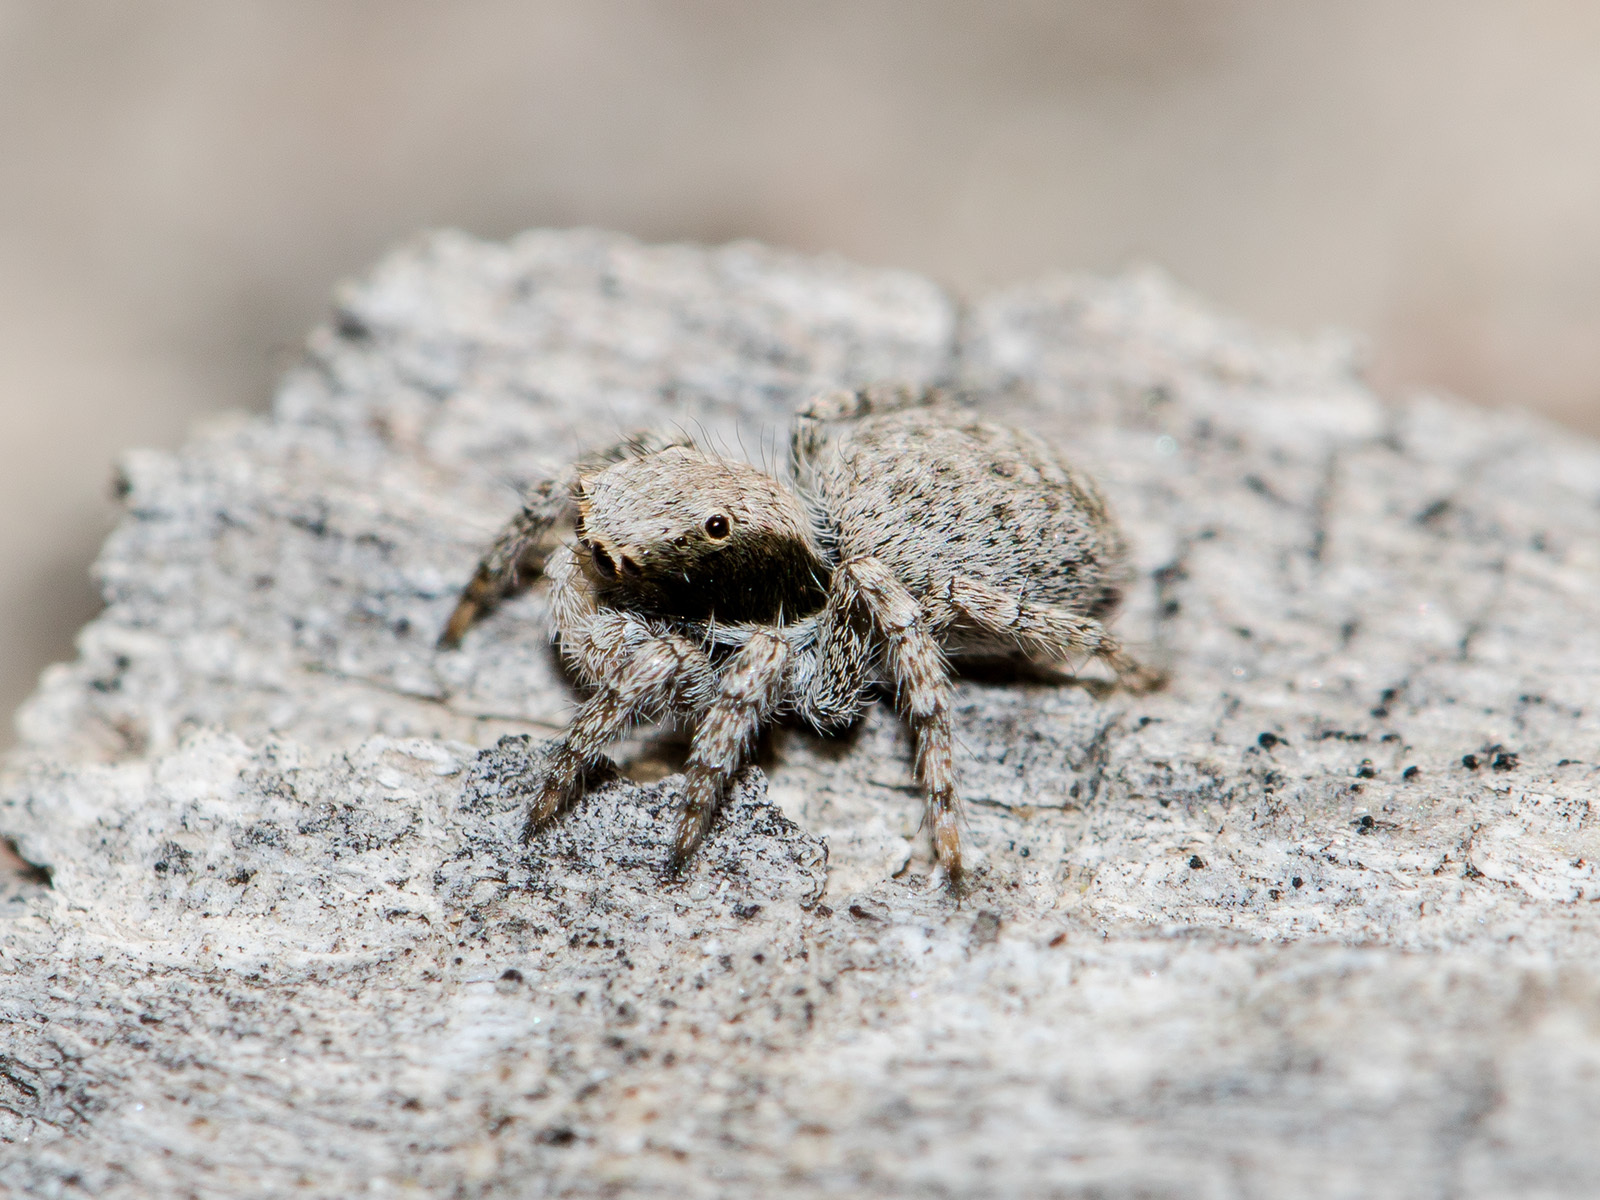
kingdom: Animalia
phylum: Arthropoda
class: Arachnida
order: Araneae
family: Salticidae
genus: Aelurillus
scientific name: Aelurillus andreevae
